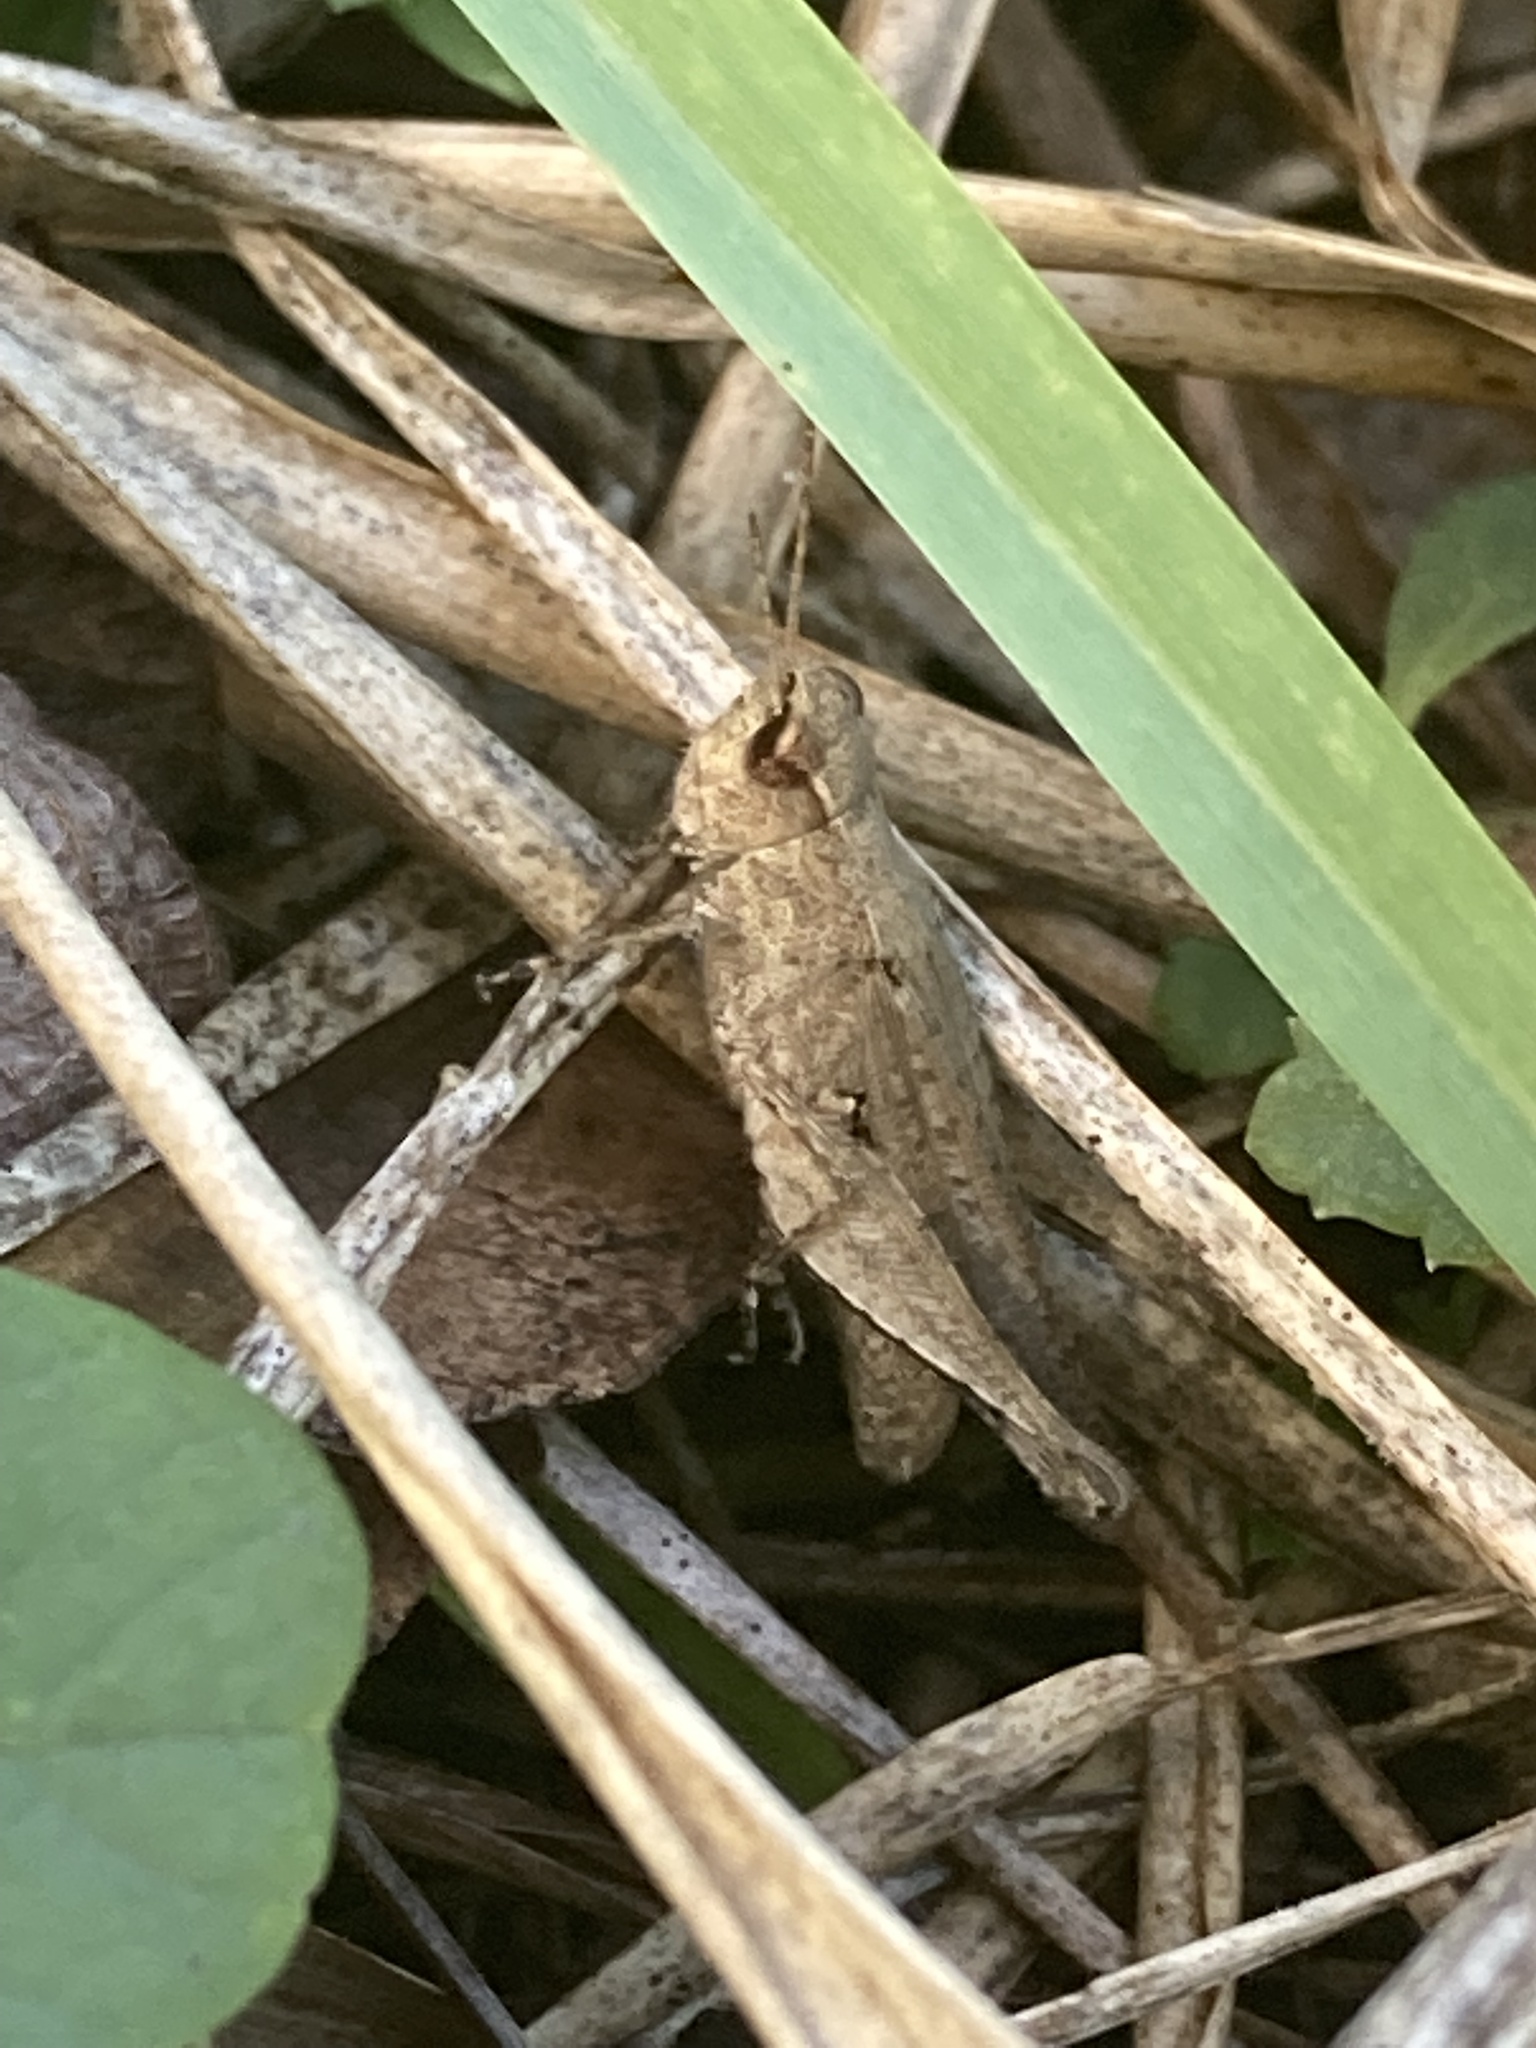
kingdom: Animalia
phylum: Arthropoda
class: Insecta
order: Orthoptera
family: Acrididae
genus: Orphulella
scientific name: Orphulella punctata
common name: Slant-faced grasshopper
